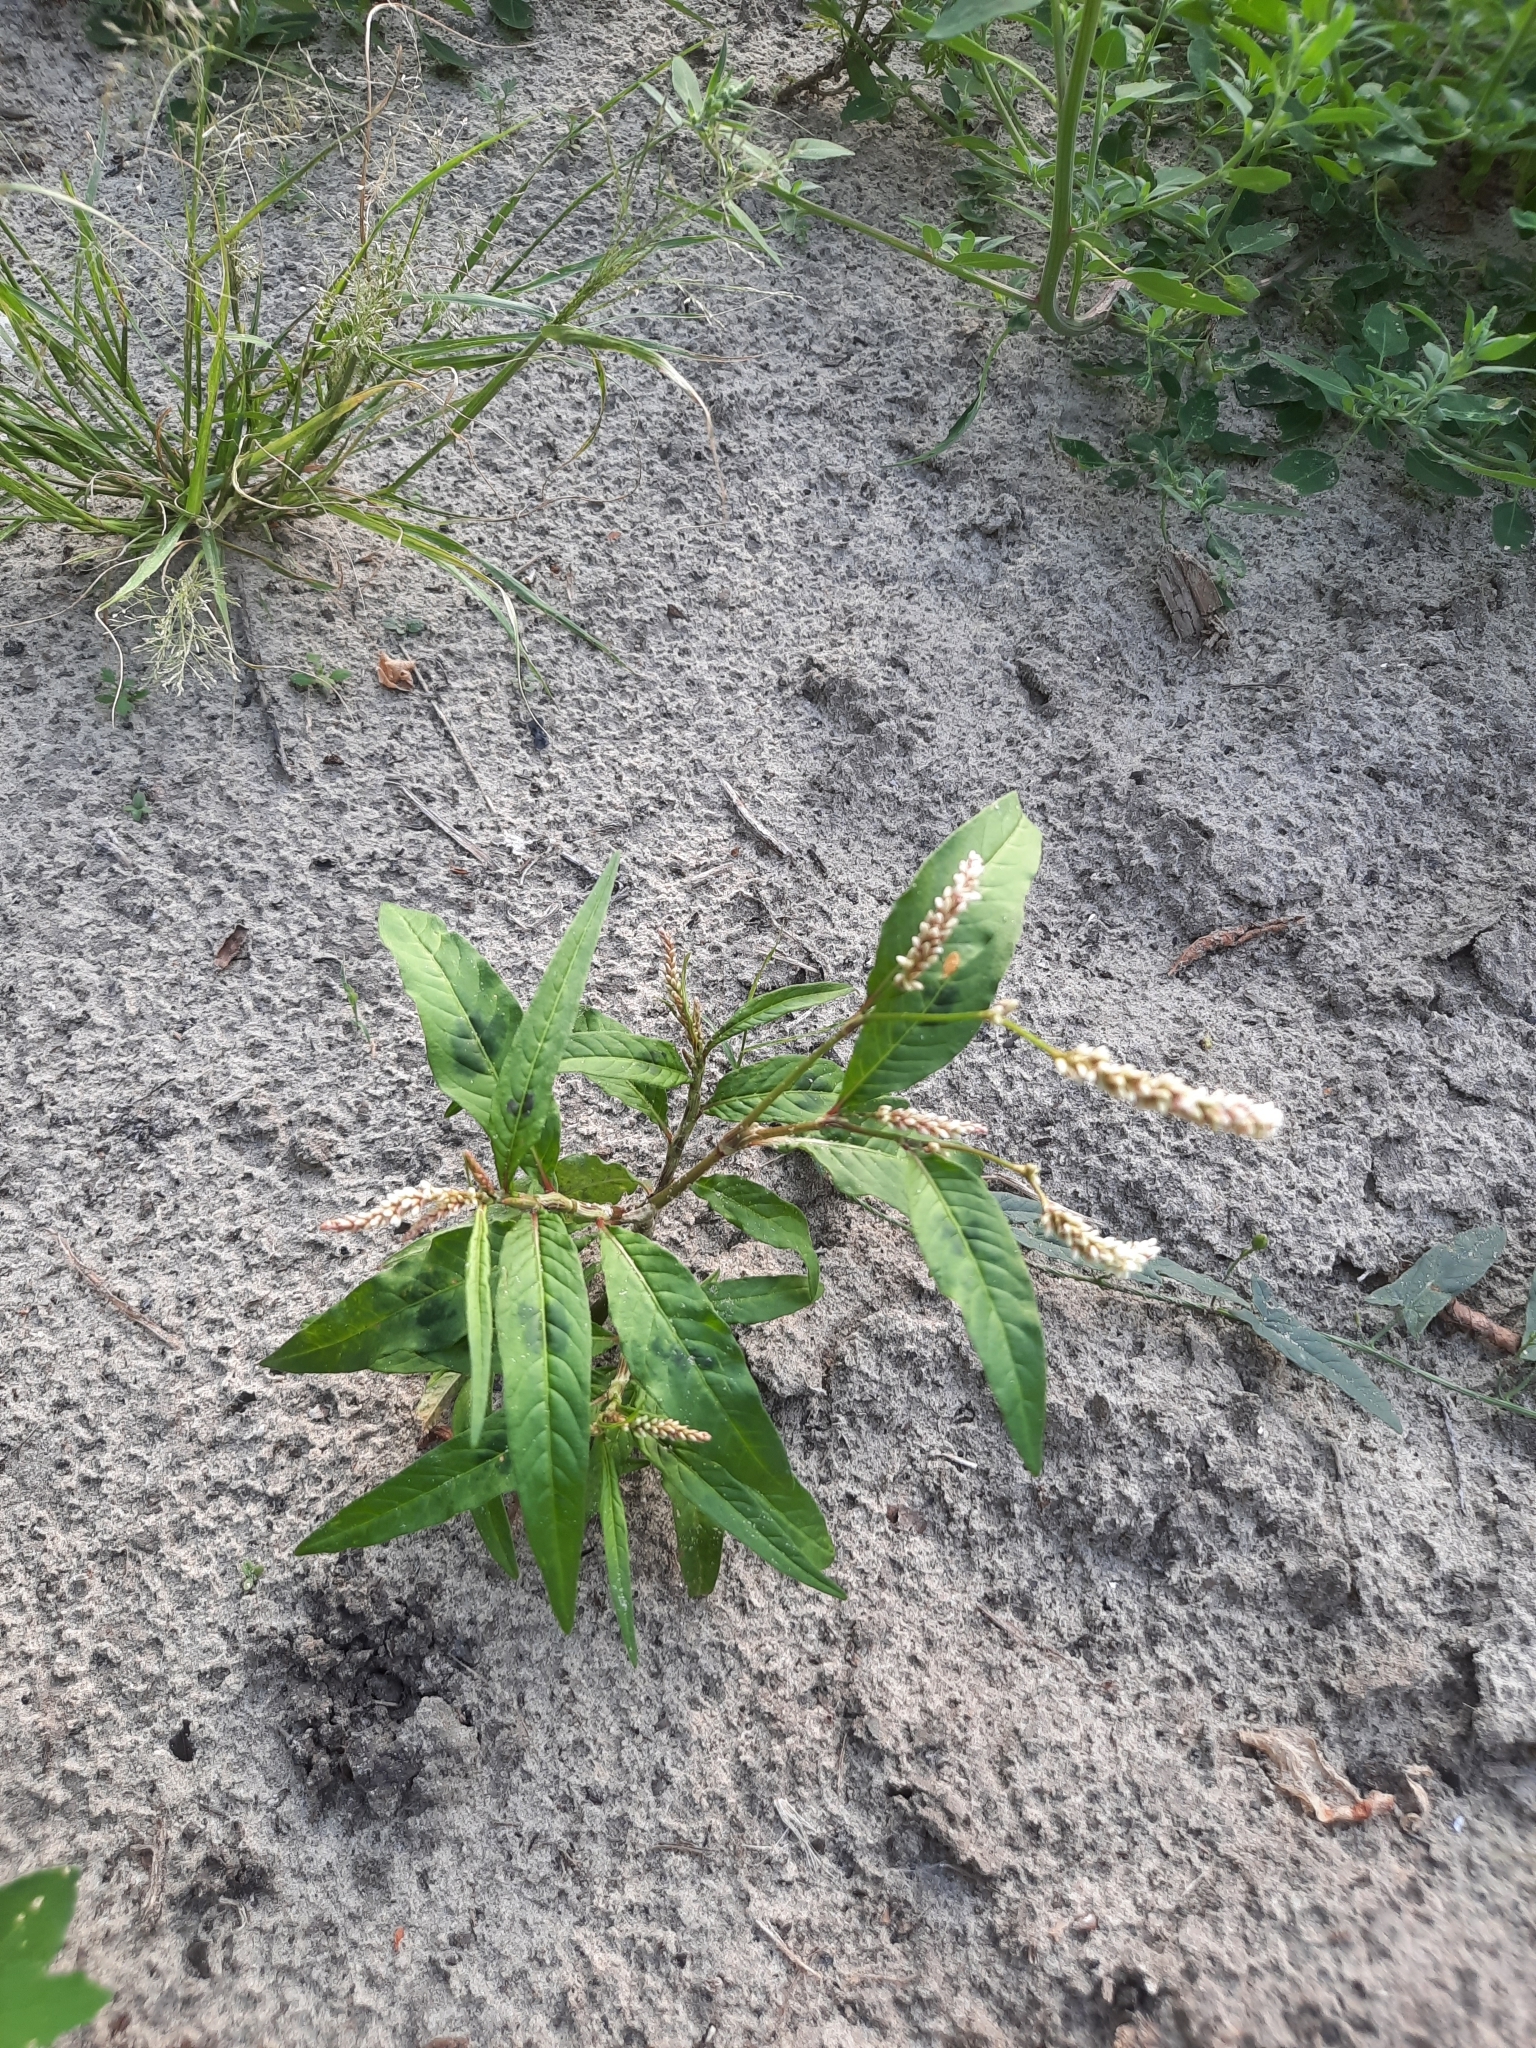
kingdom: Plantae
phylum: Tracheophyta
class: Magnoliopsida
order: Caryophyllales
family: Polygonaceae
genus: Persicaria
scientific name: Persicaria lapathifolia
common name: Curlytop knotweed
